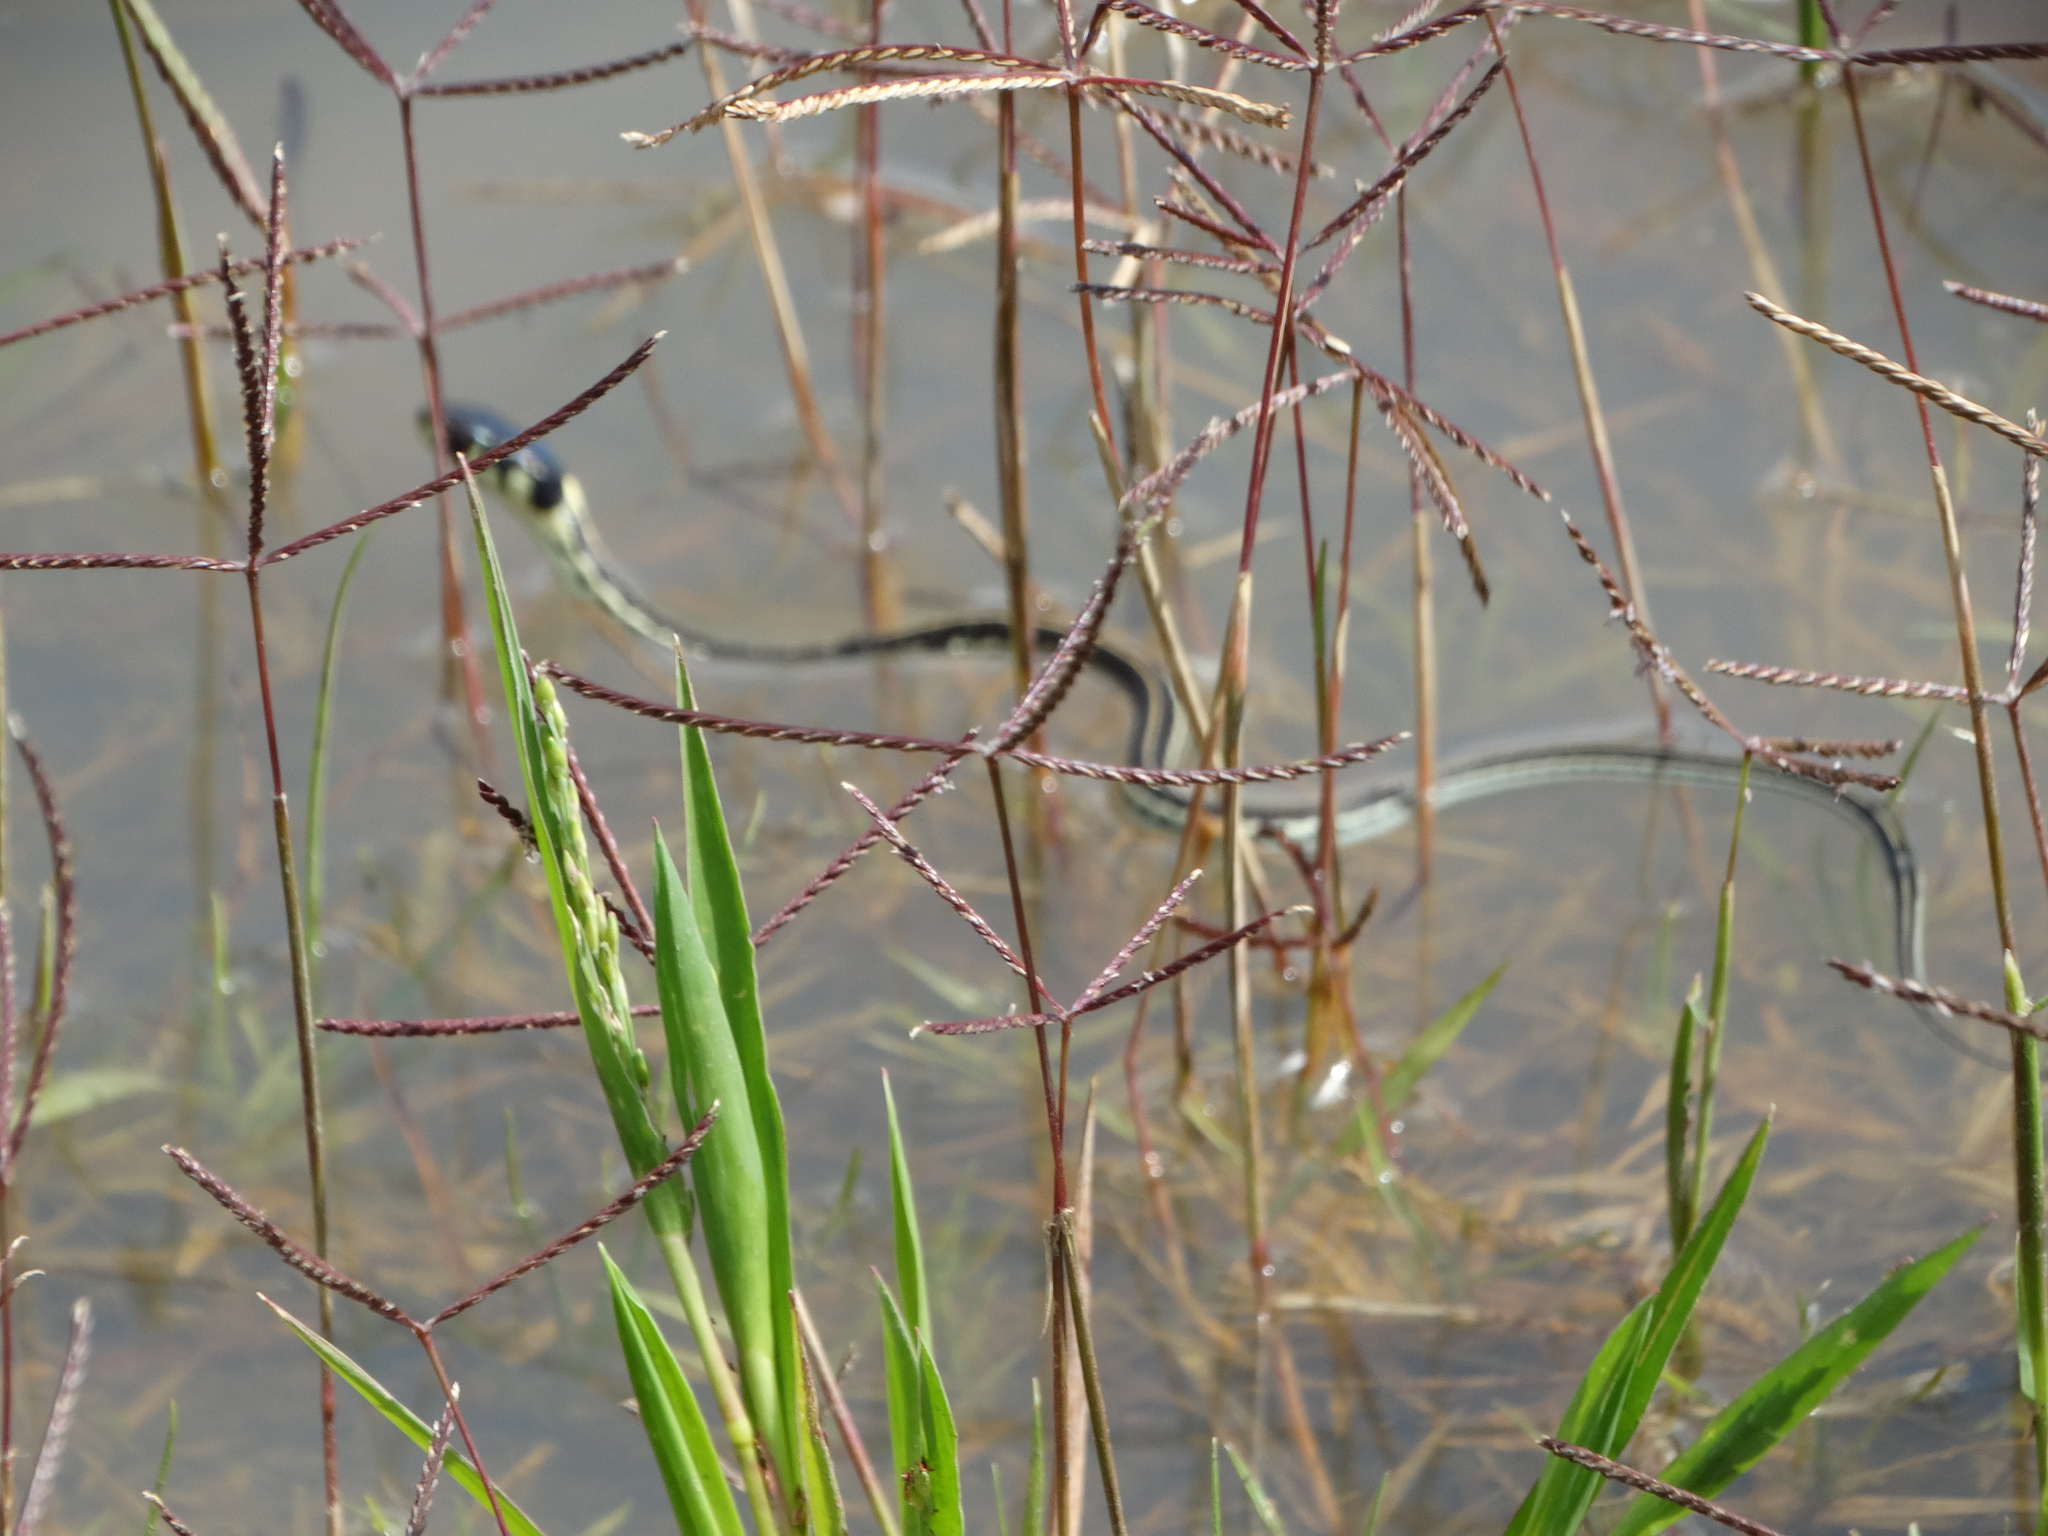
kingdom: Animalia
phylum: Chordata
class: Squamata
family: Colubridae
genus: Thamnophis
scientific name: Thamnophis pulchrilatus
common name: Yellow-throated gartersnake
